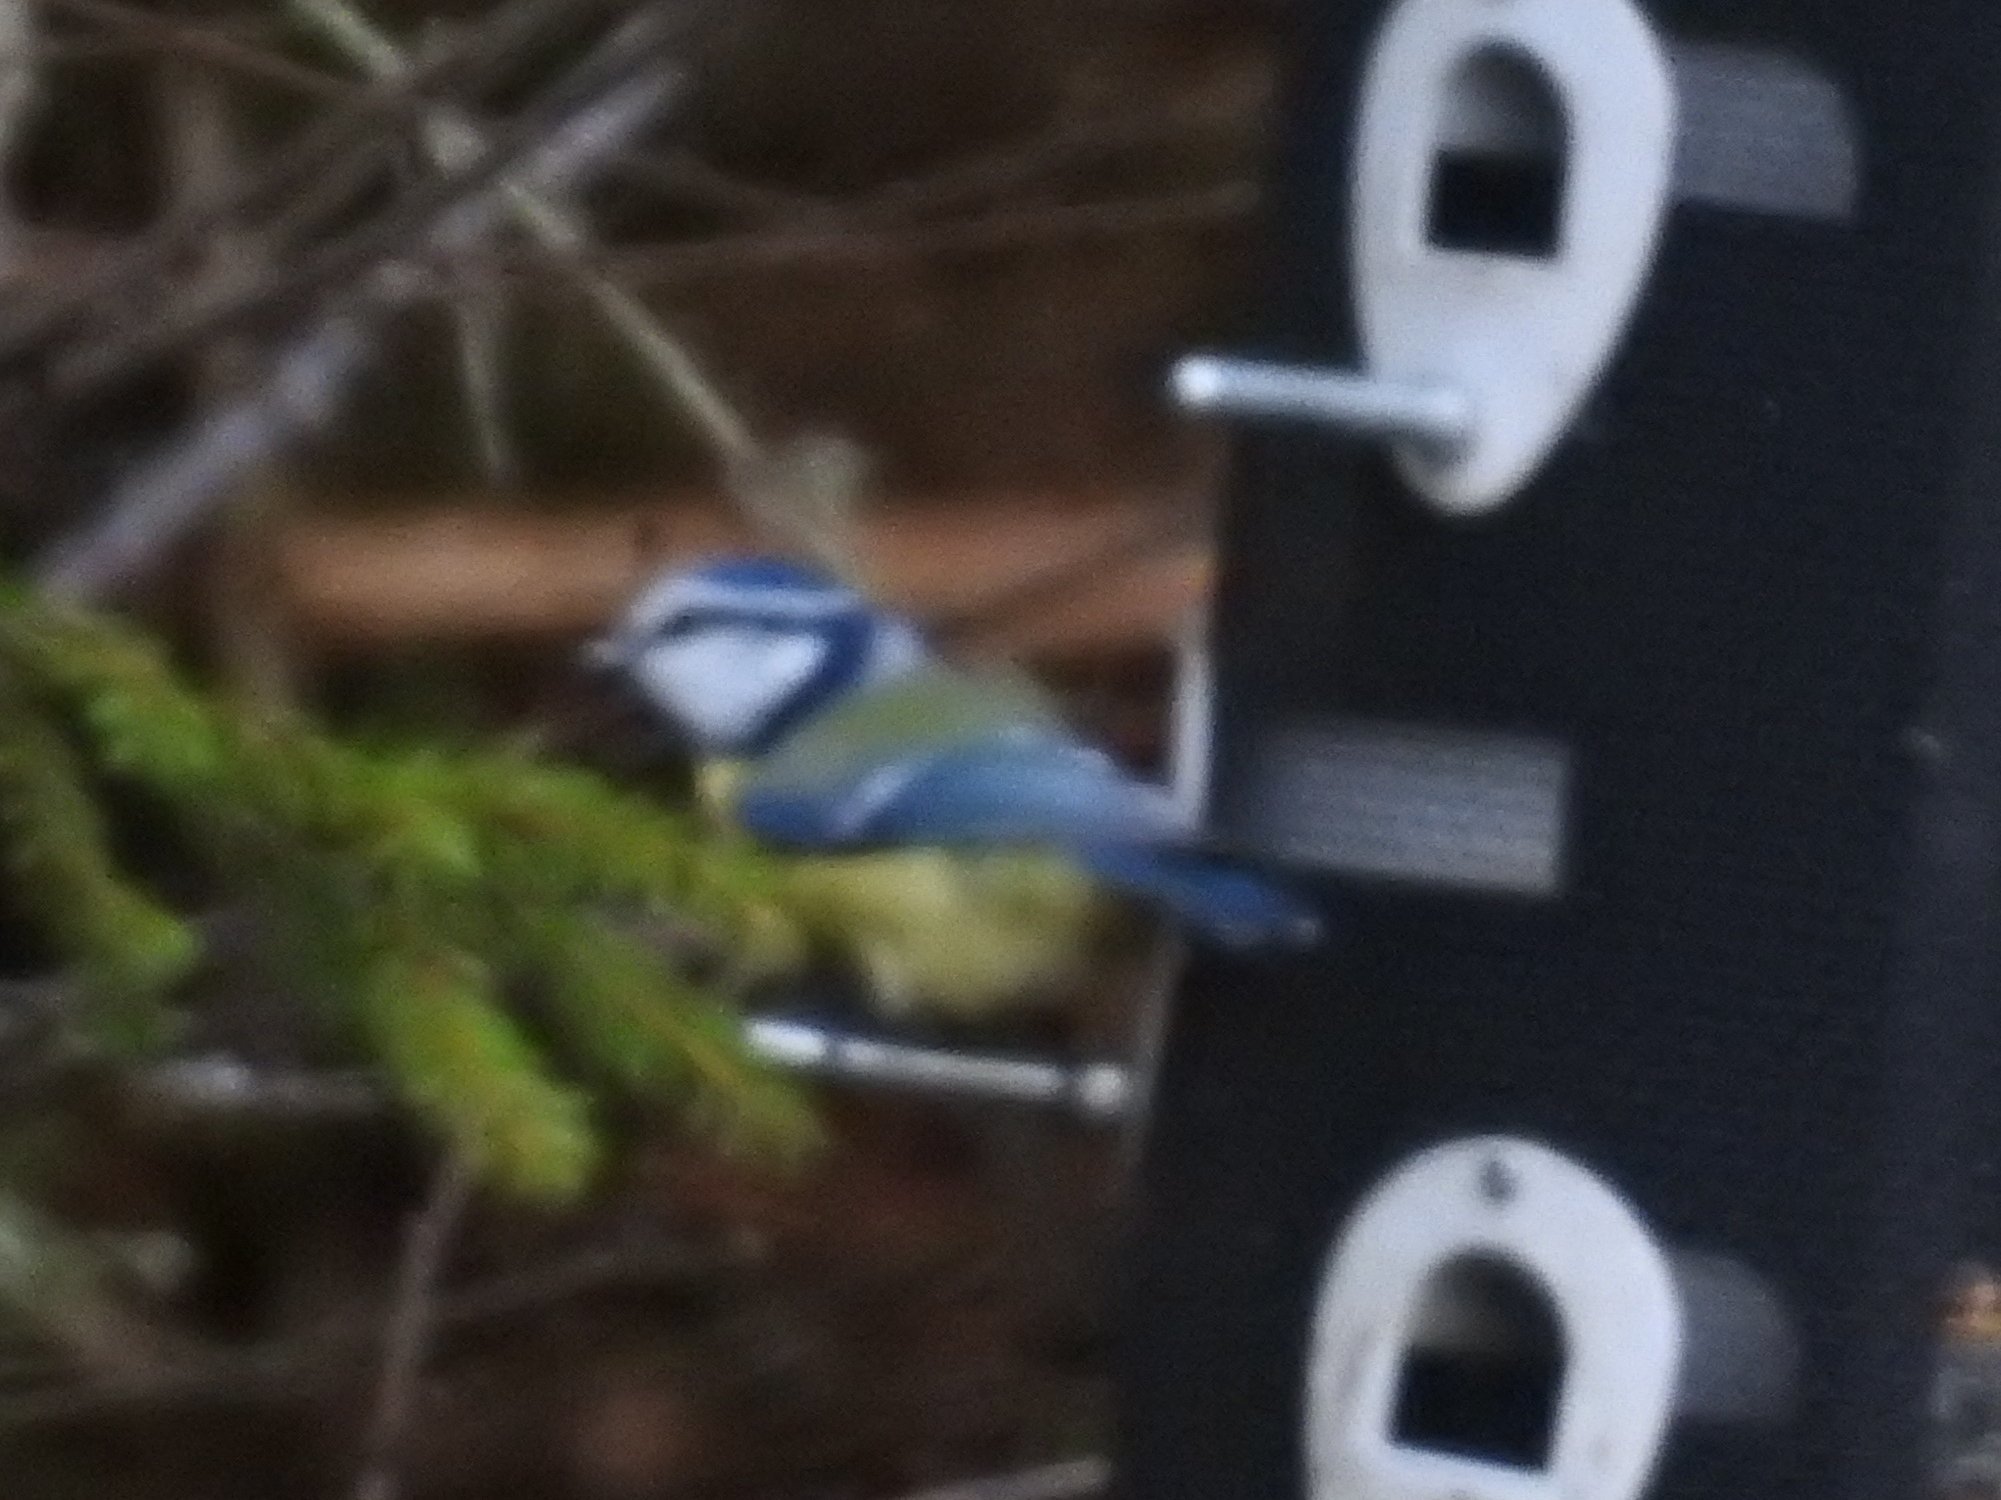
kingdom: Animalia
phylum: Chordata
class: Aves
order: Passeriformes
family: Paridae
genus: Cyanistes
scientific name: Cyanistes caeruleus
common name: Eurasian blue tit
